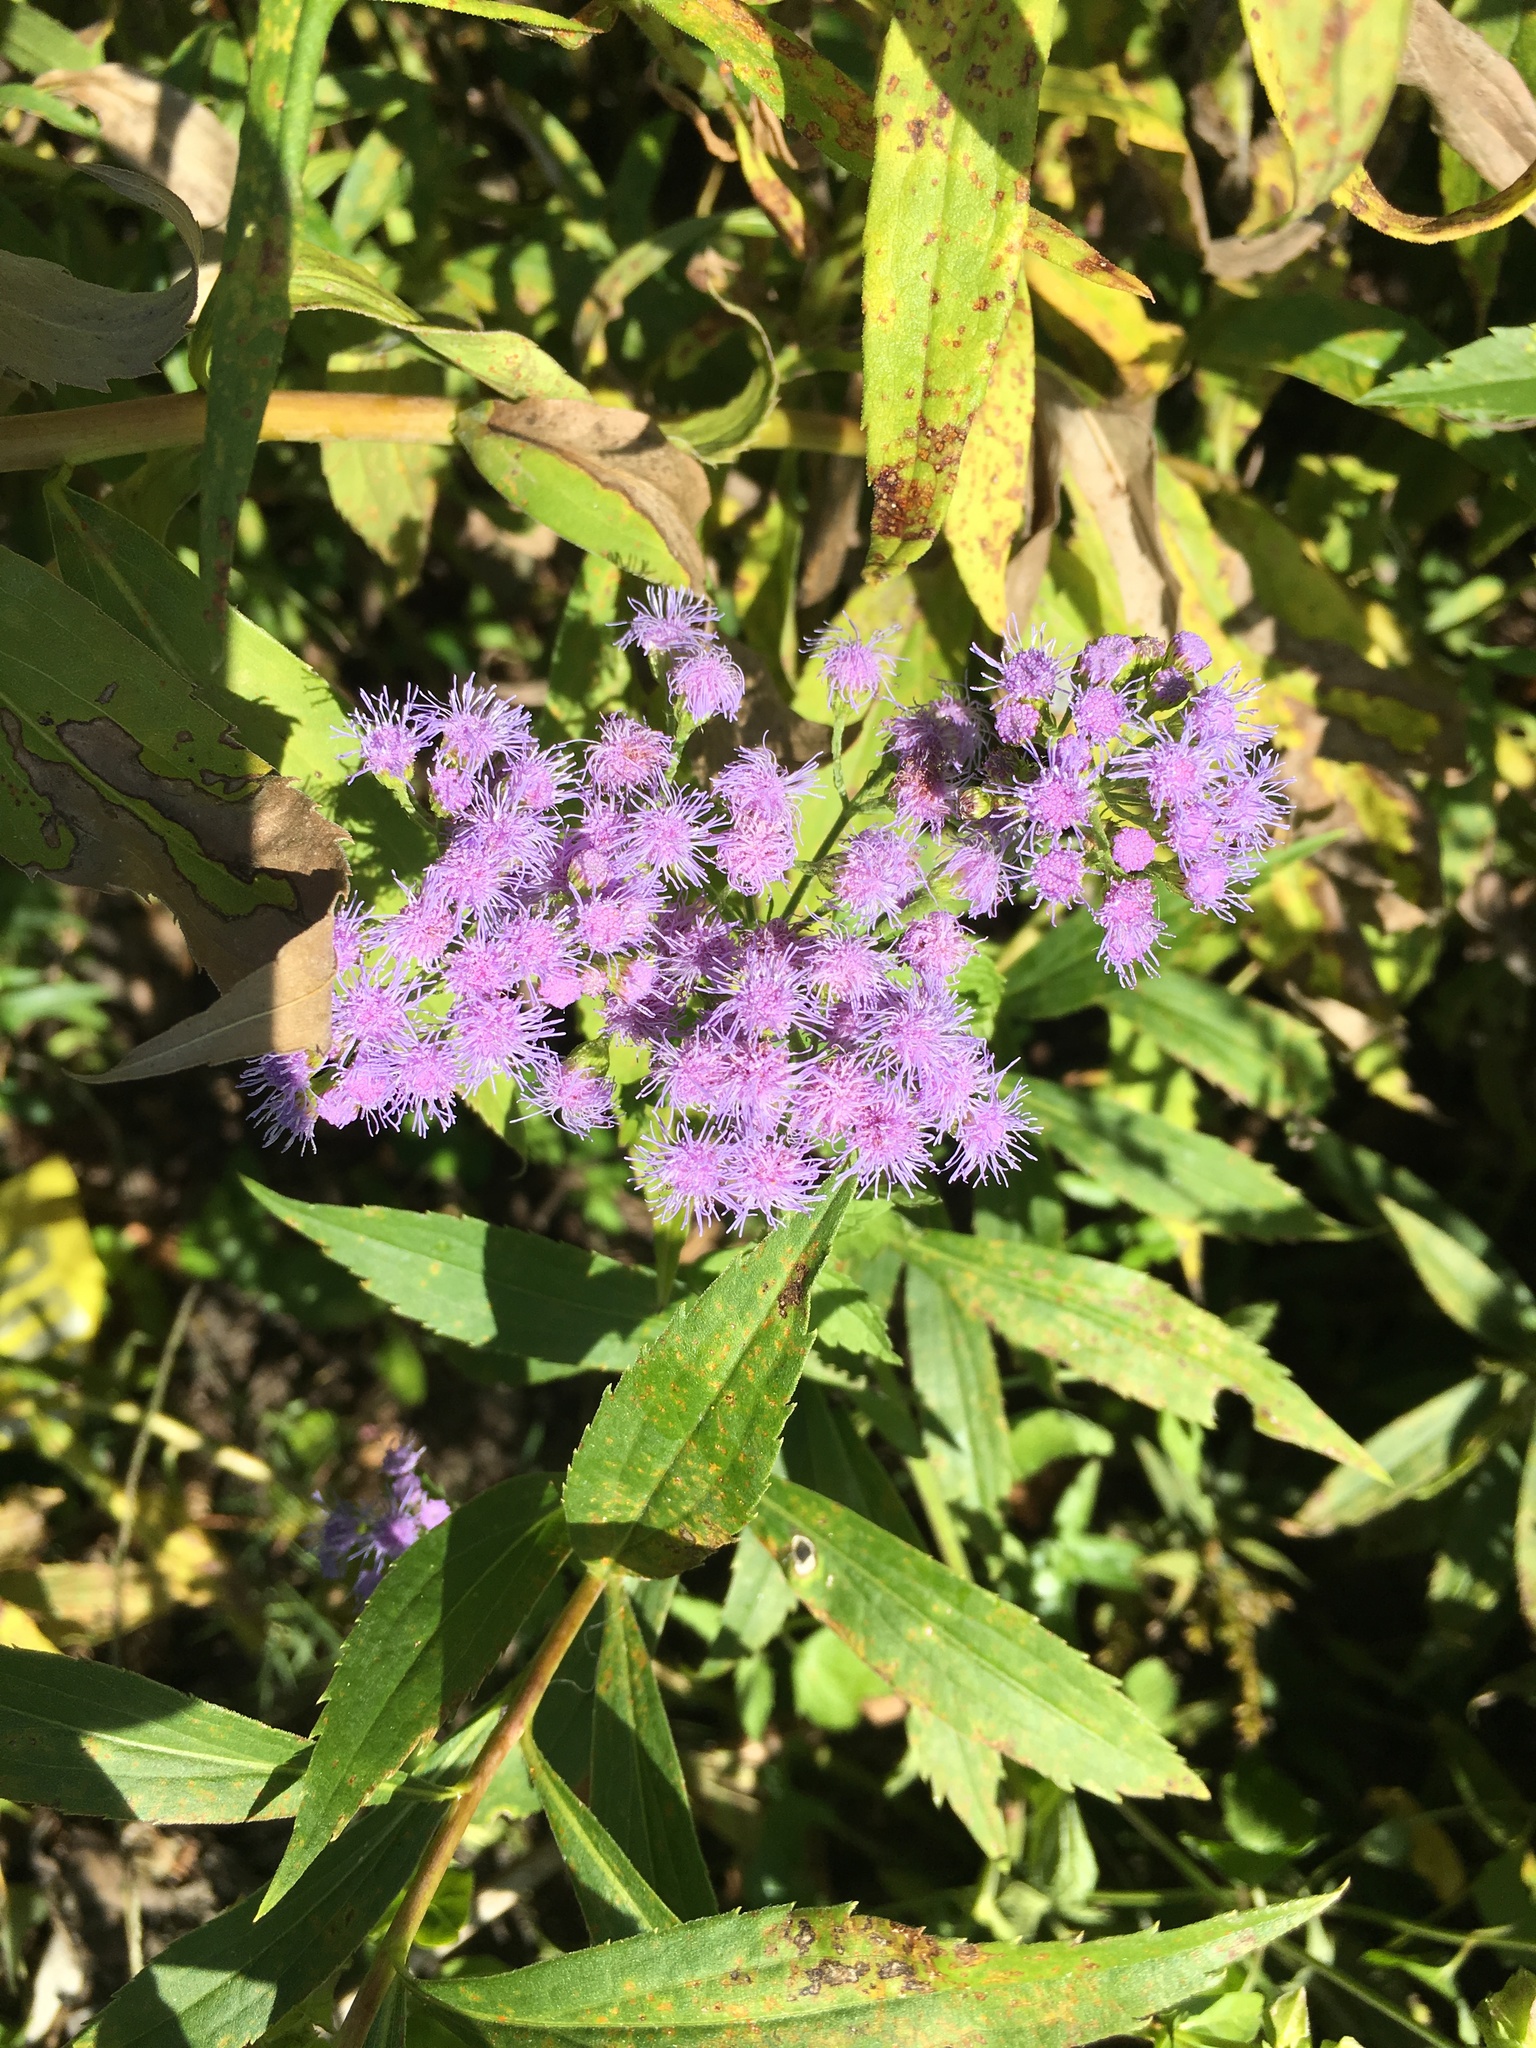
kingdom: Plantae
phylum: Tracheophyta
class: Magnoliopsida
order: Asterales
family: Asteraceae
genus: Conoclinium
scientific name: Conoclinium coelestinum
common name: Blue mistflower
